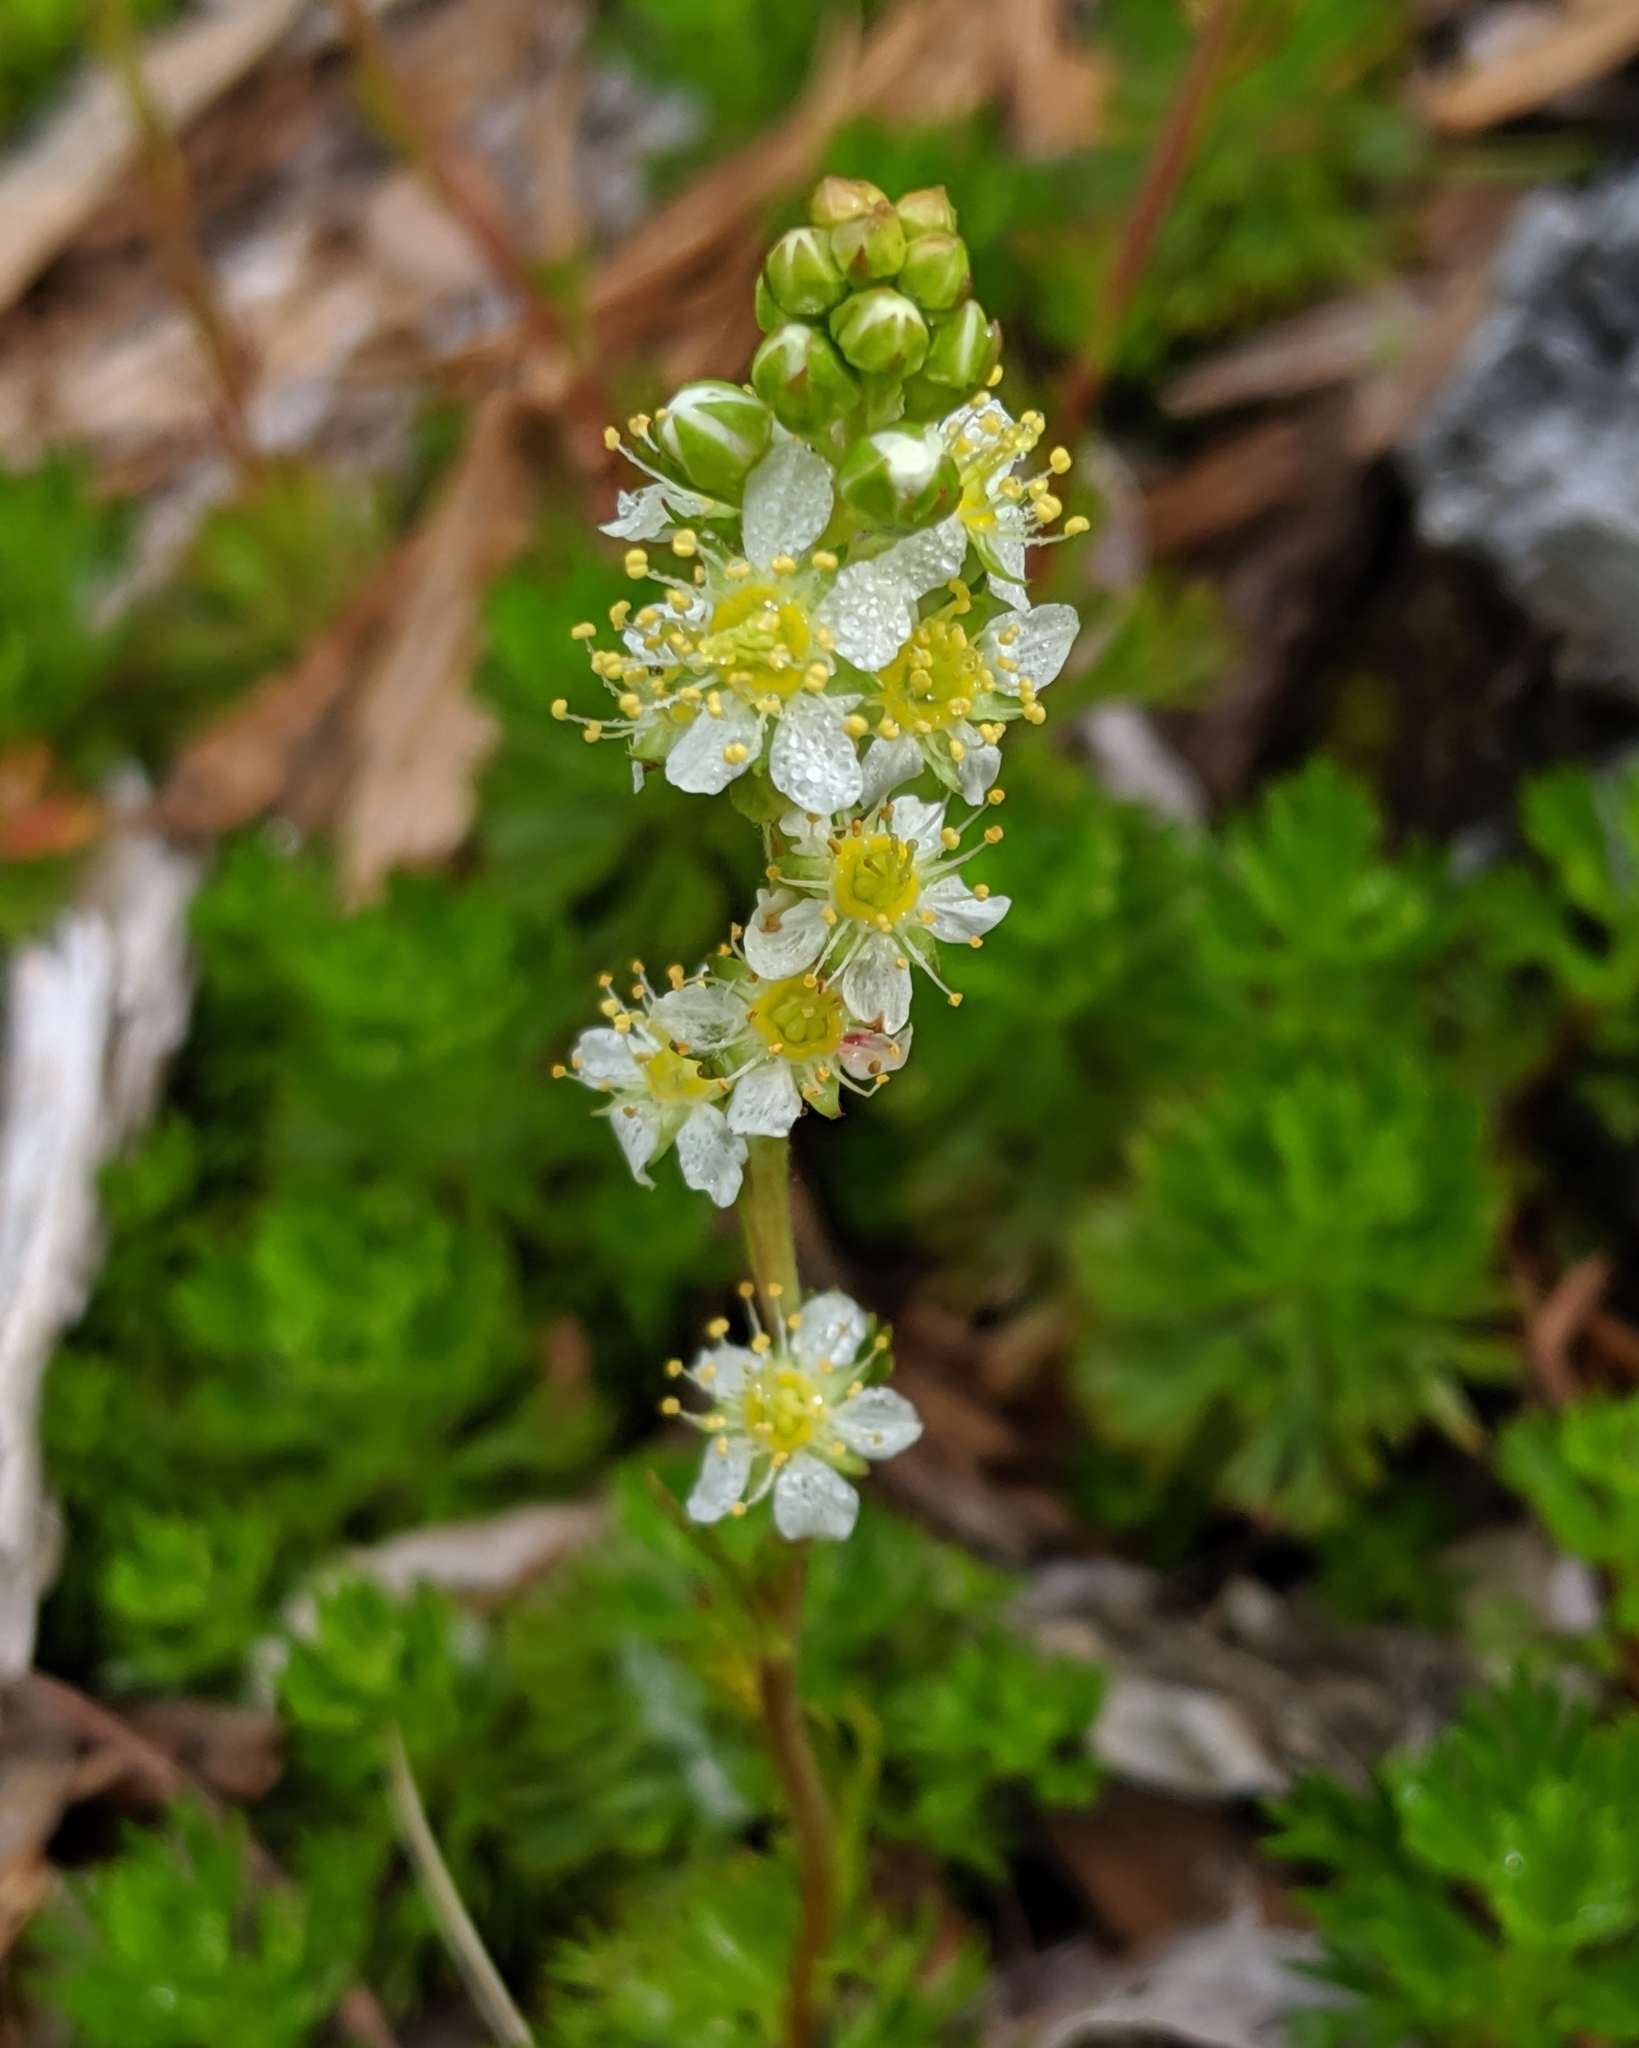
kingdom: Plantae
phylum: Tracheophyta
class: Magnoliopsida
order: Rosales
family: Rosaceae
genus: Luetkea
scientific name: Luetkea pectinata
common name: Partridgefoot
